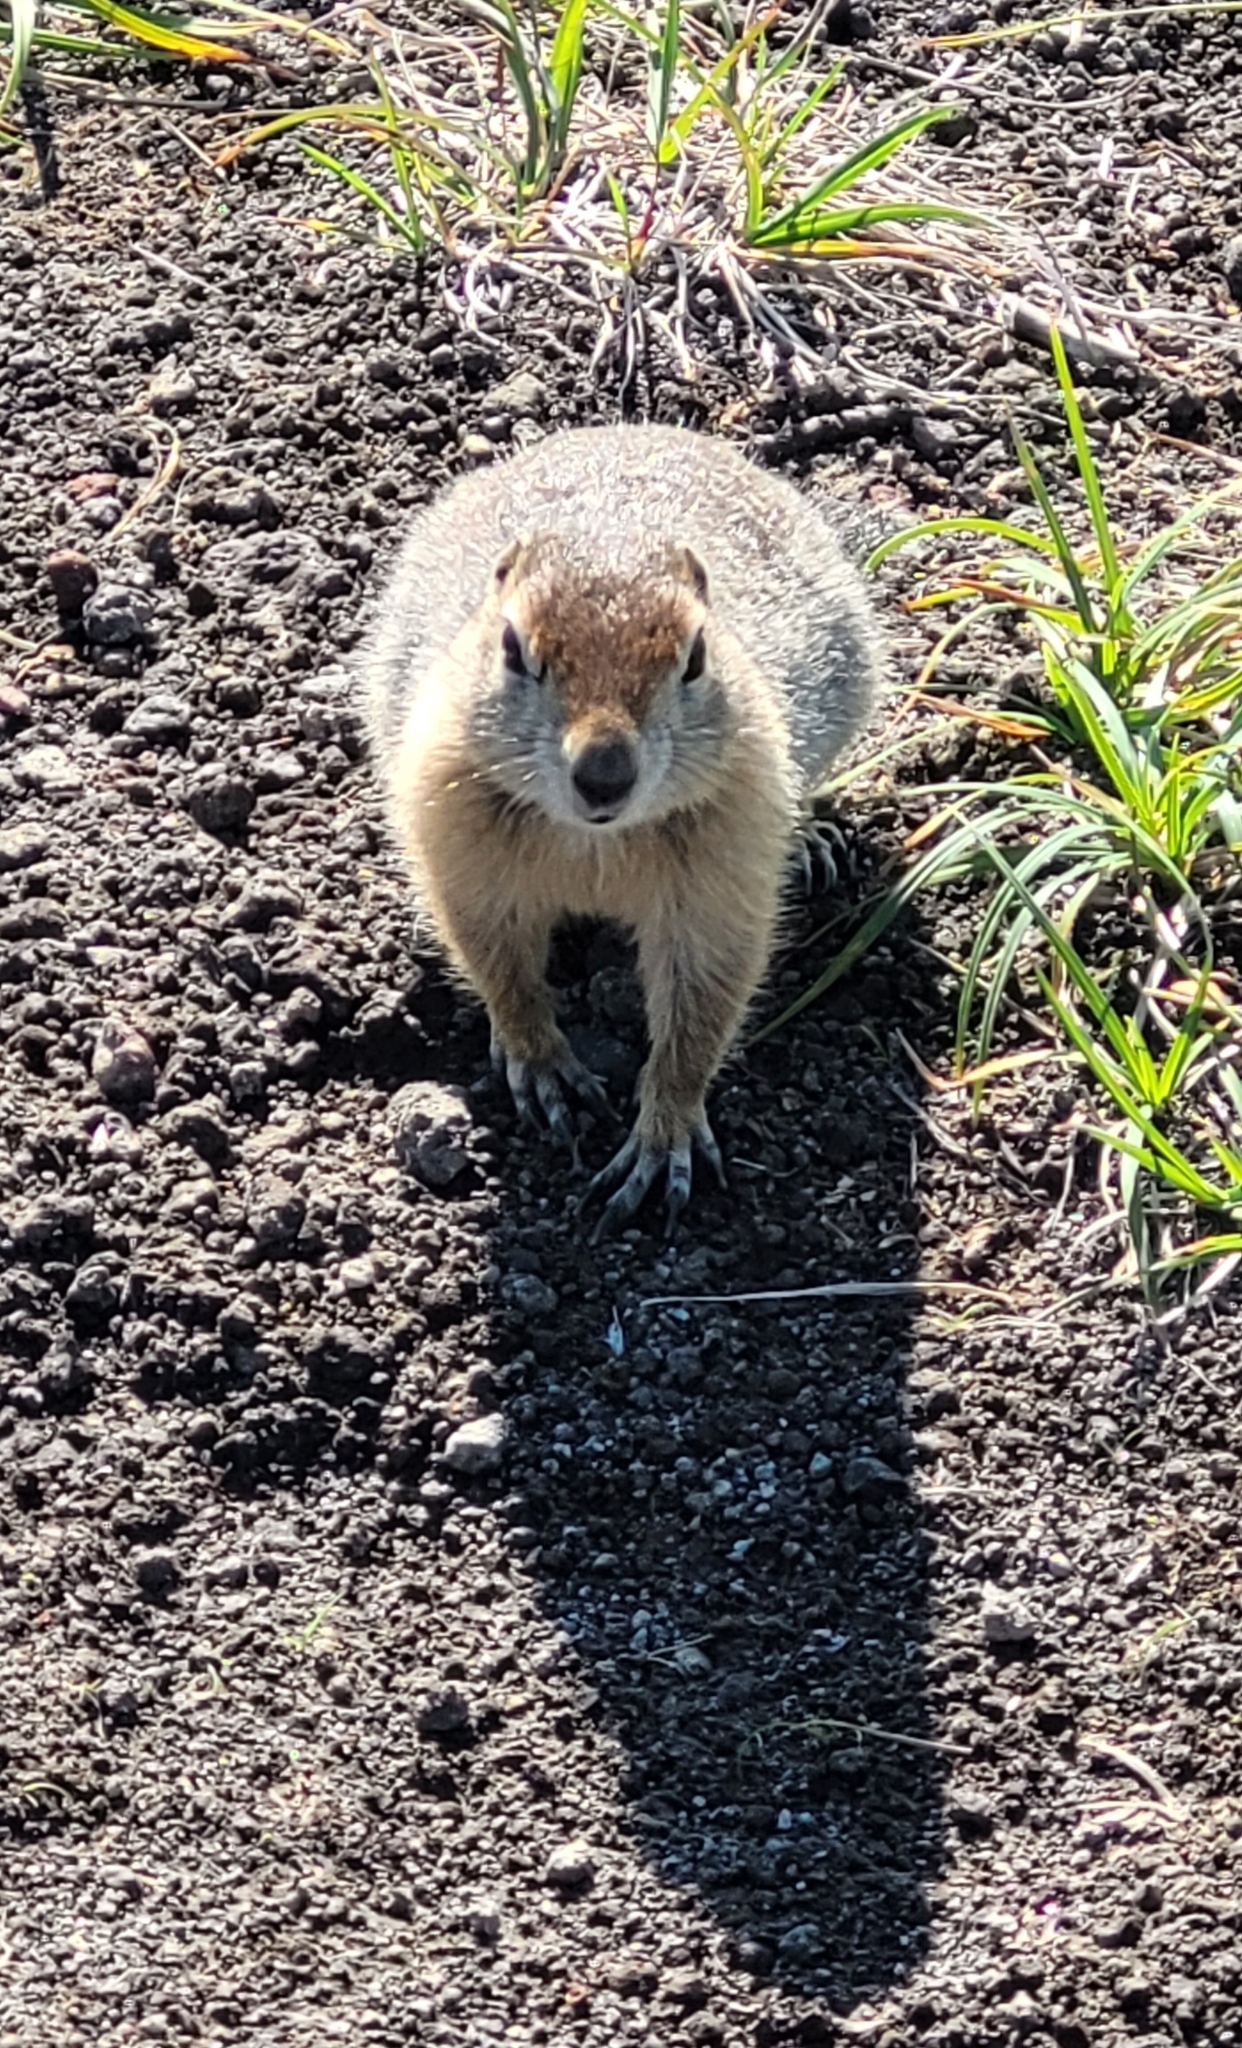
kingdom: Animalia
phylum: Chordata
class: Mammalia
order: Rodentia
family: Sciuridae
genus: Urocitellus
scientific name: Urocitellus parryii
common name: Arctic ground squirrel
